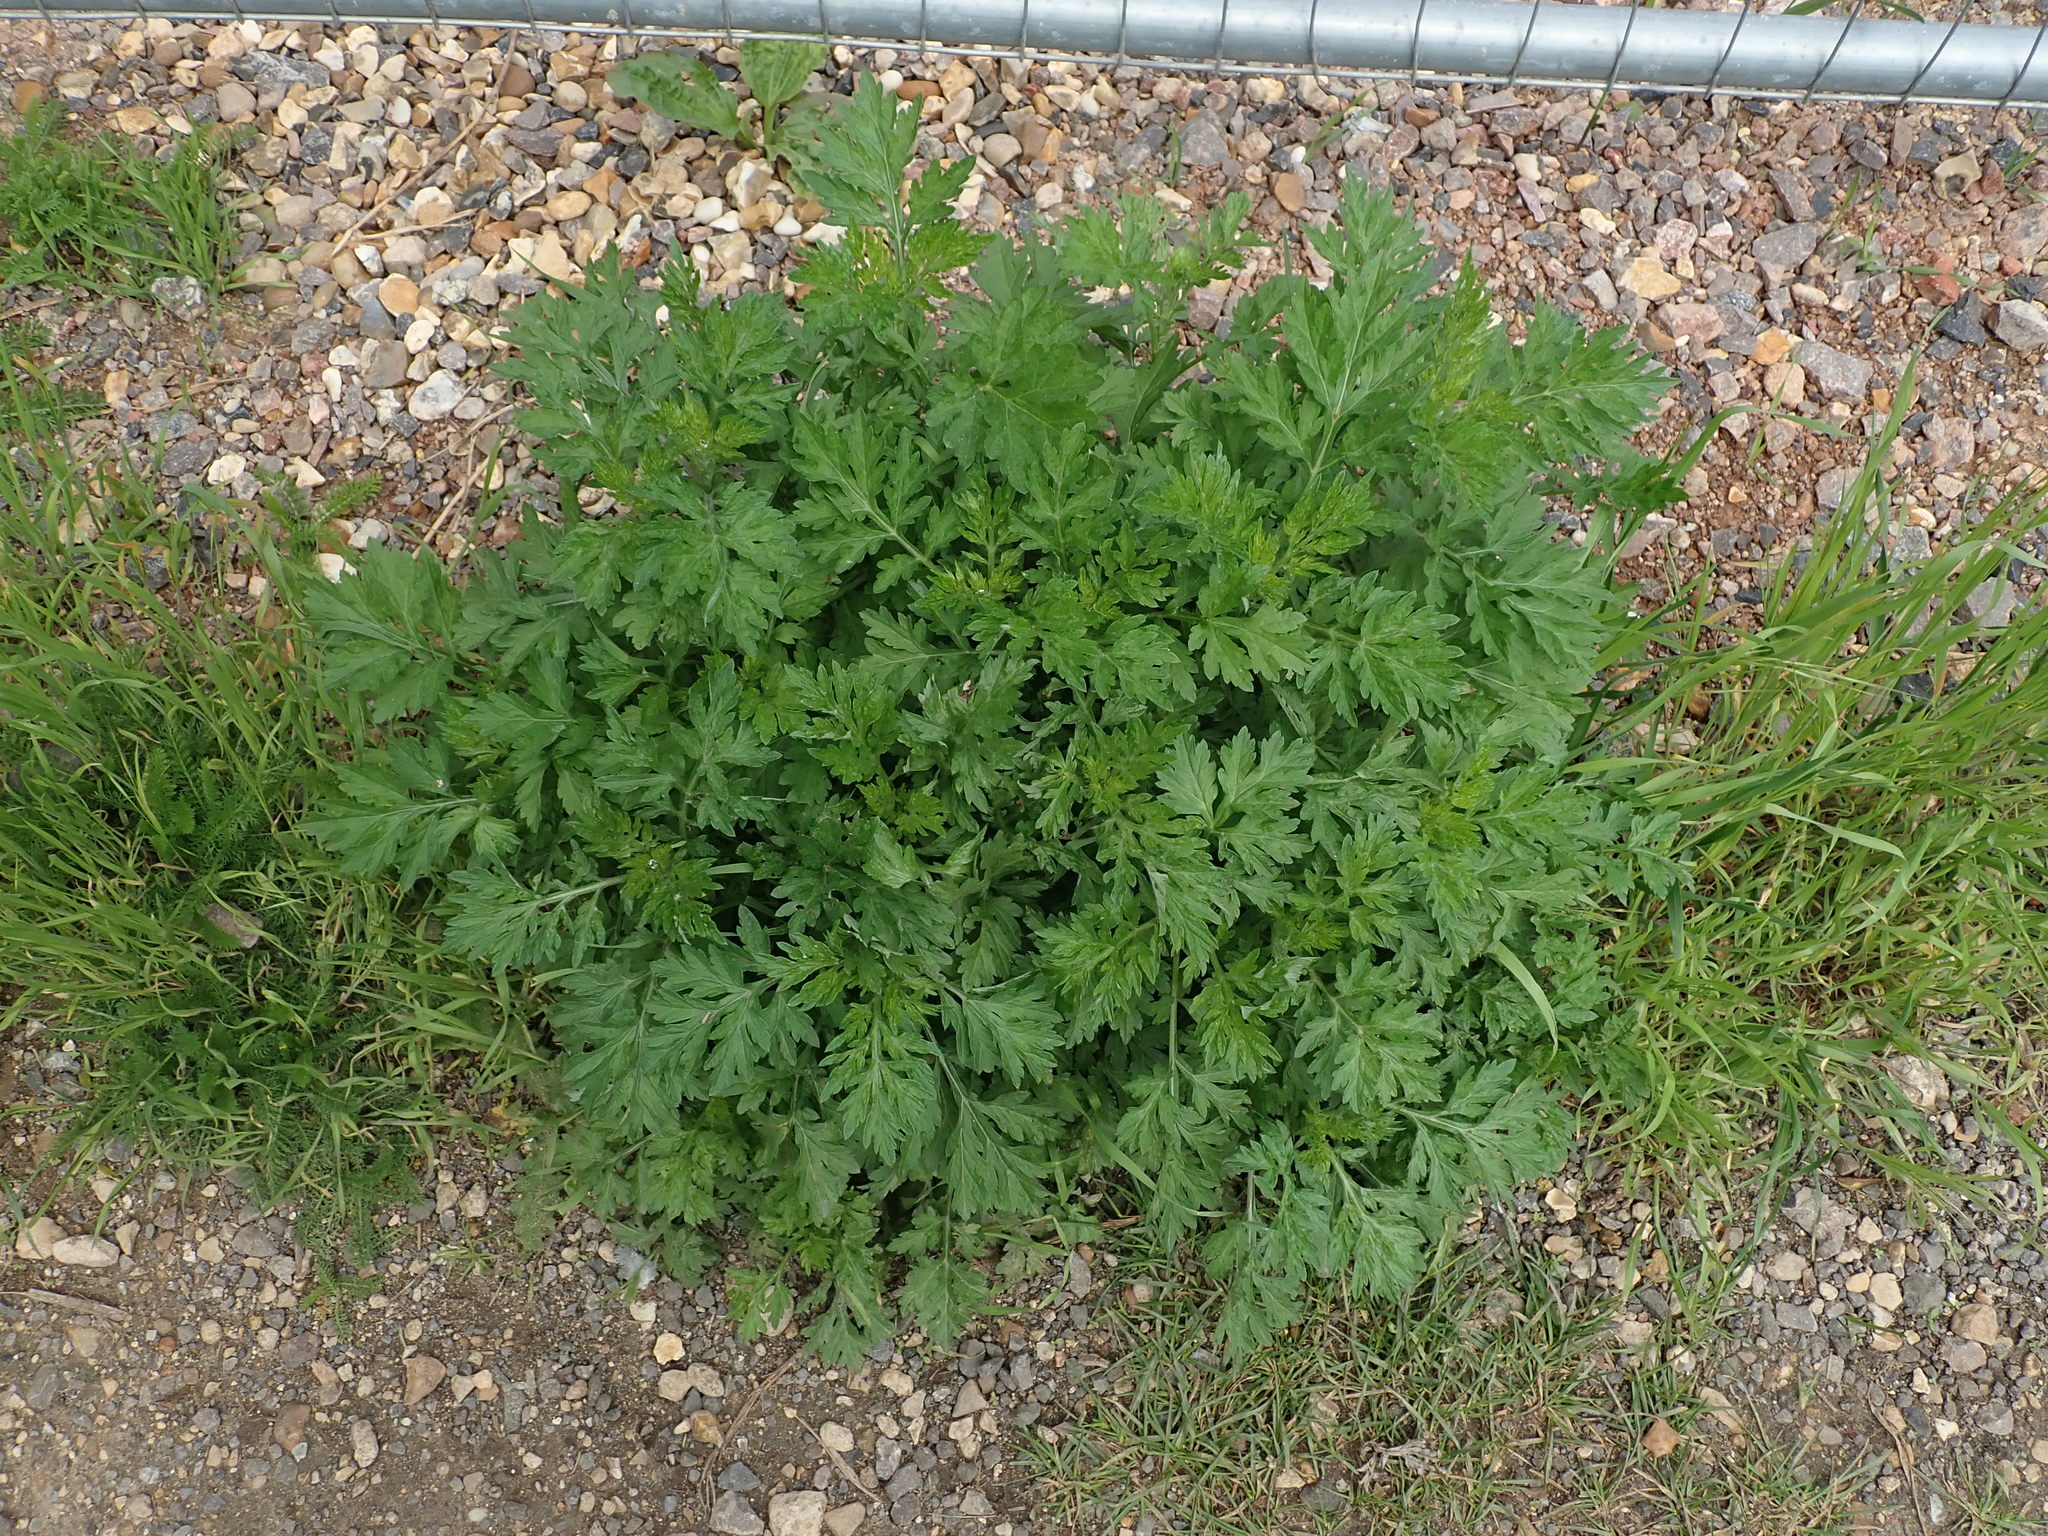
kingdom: Plantae
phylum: Tracheophyta
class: Magnoliopsida
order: Asterales
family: Asteraceae
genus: Artemisia
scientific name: Artemisia vulgaris
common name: Mugwort
